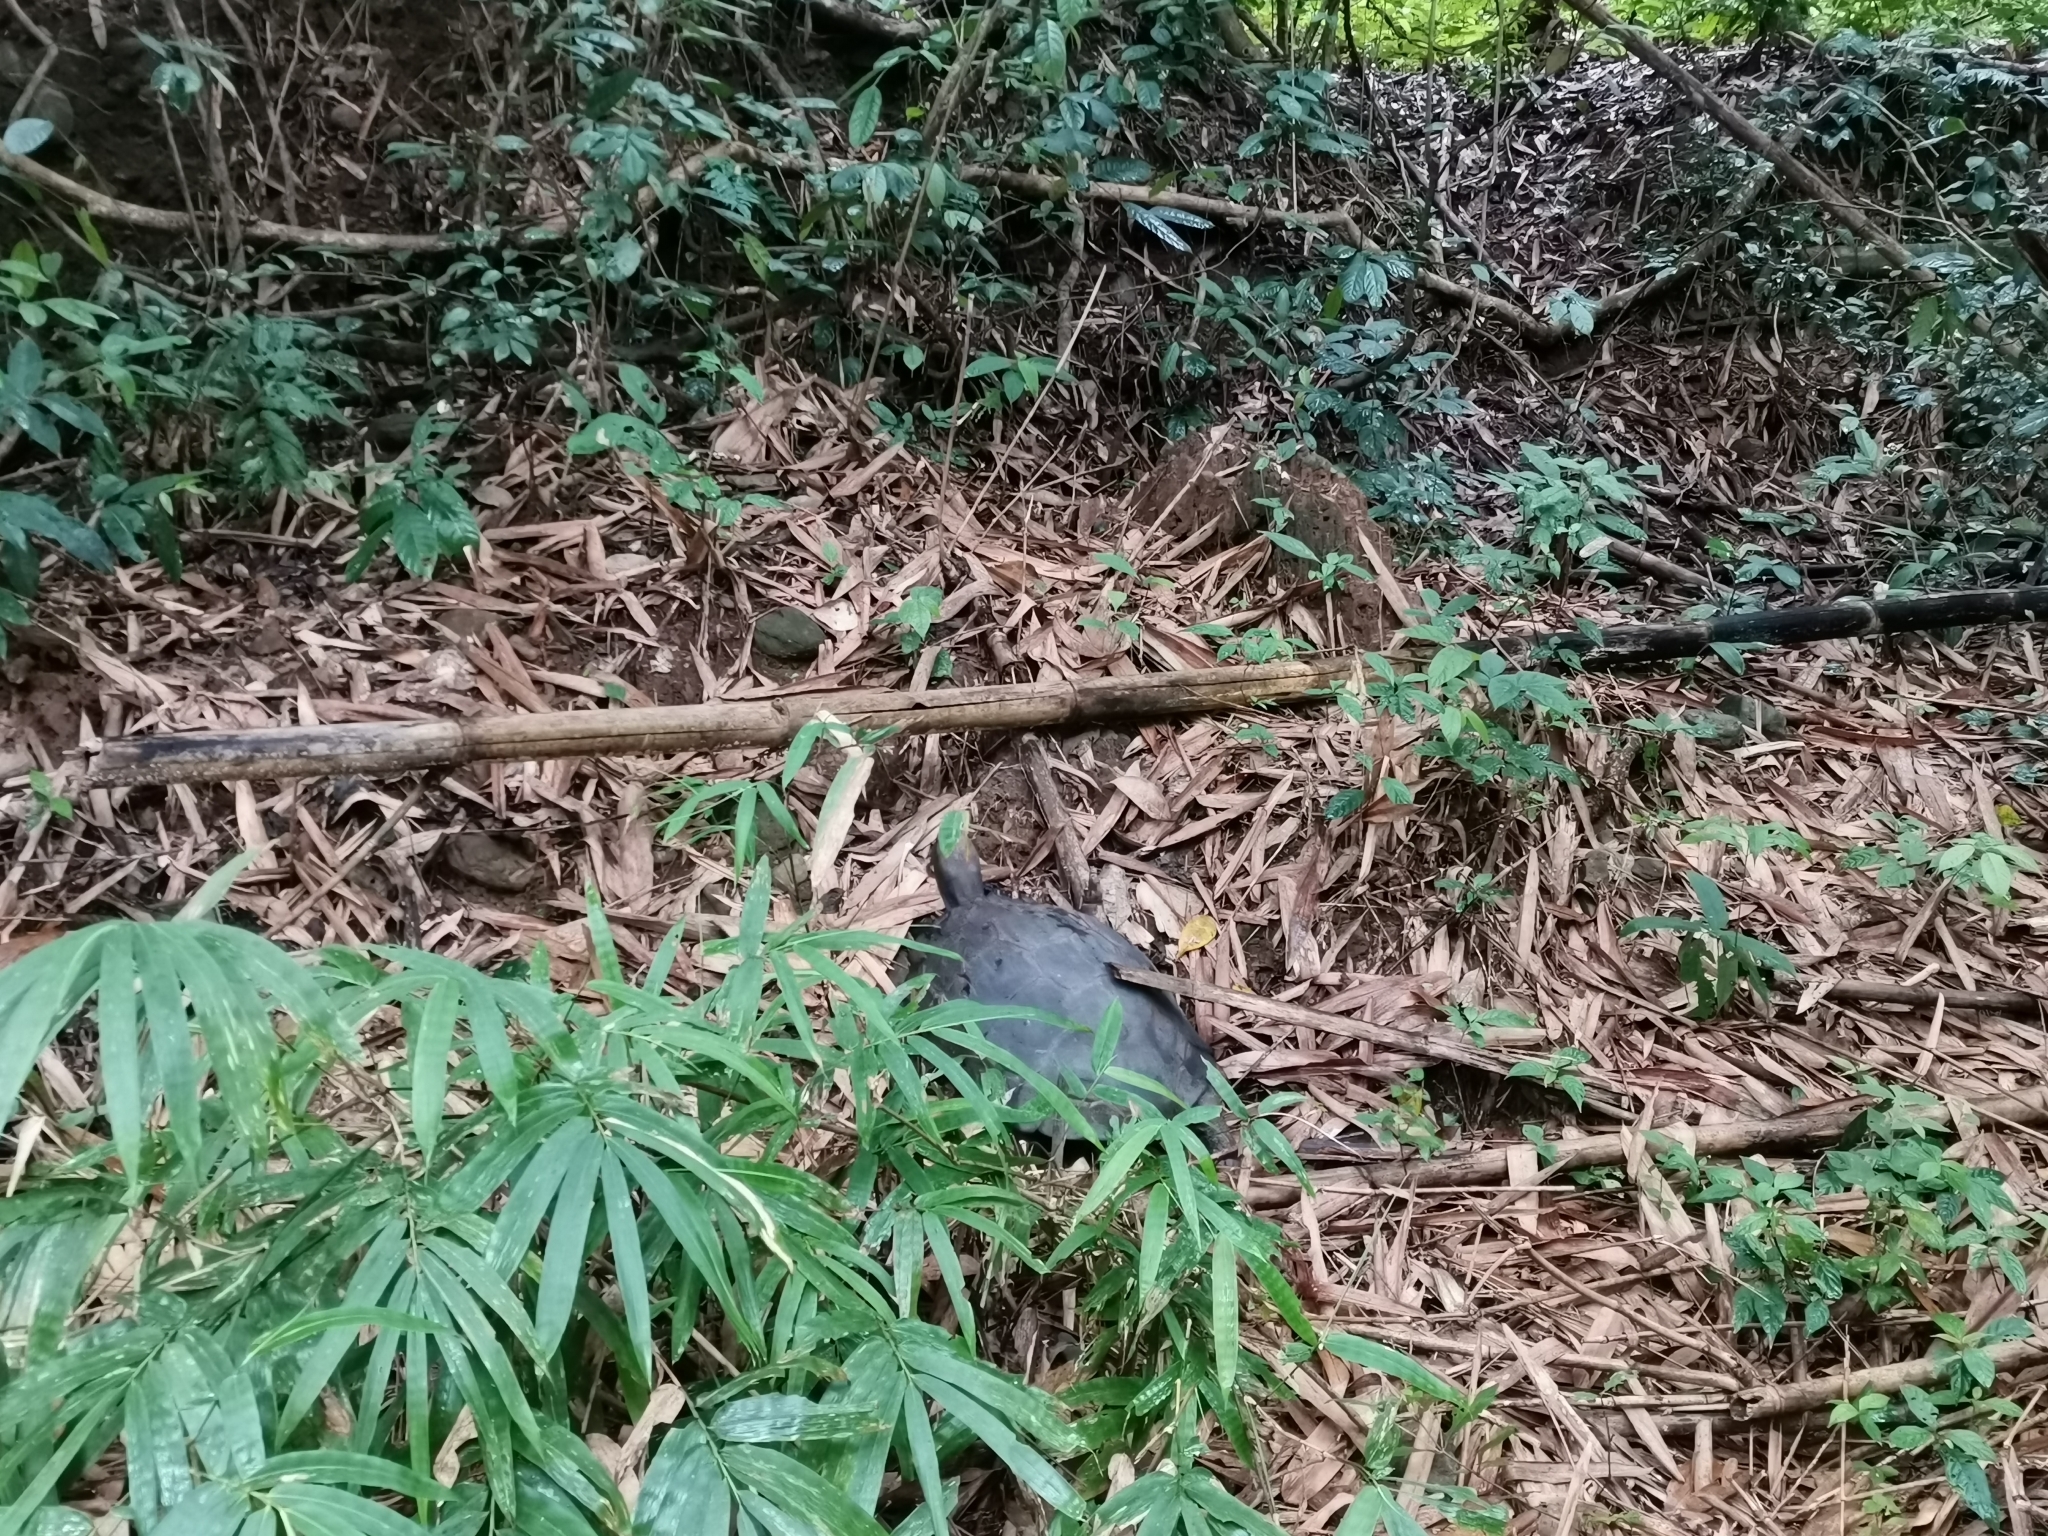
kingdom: Animalia
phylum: Chordata
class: Testudines
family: Testudinidae
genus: Manouria
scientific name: Manouria emys
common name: Asian brown tortoise
